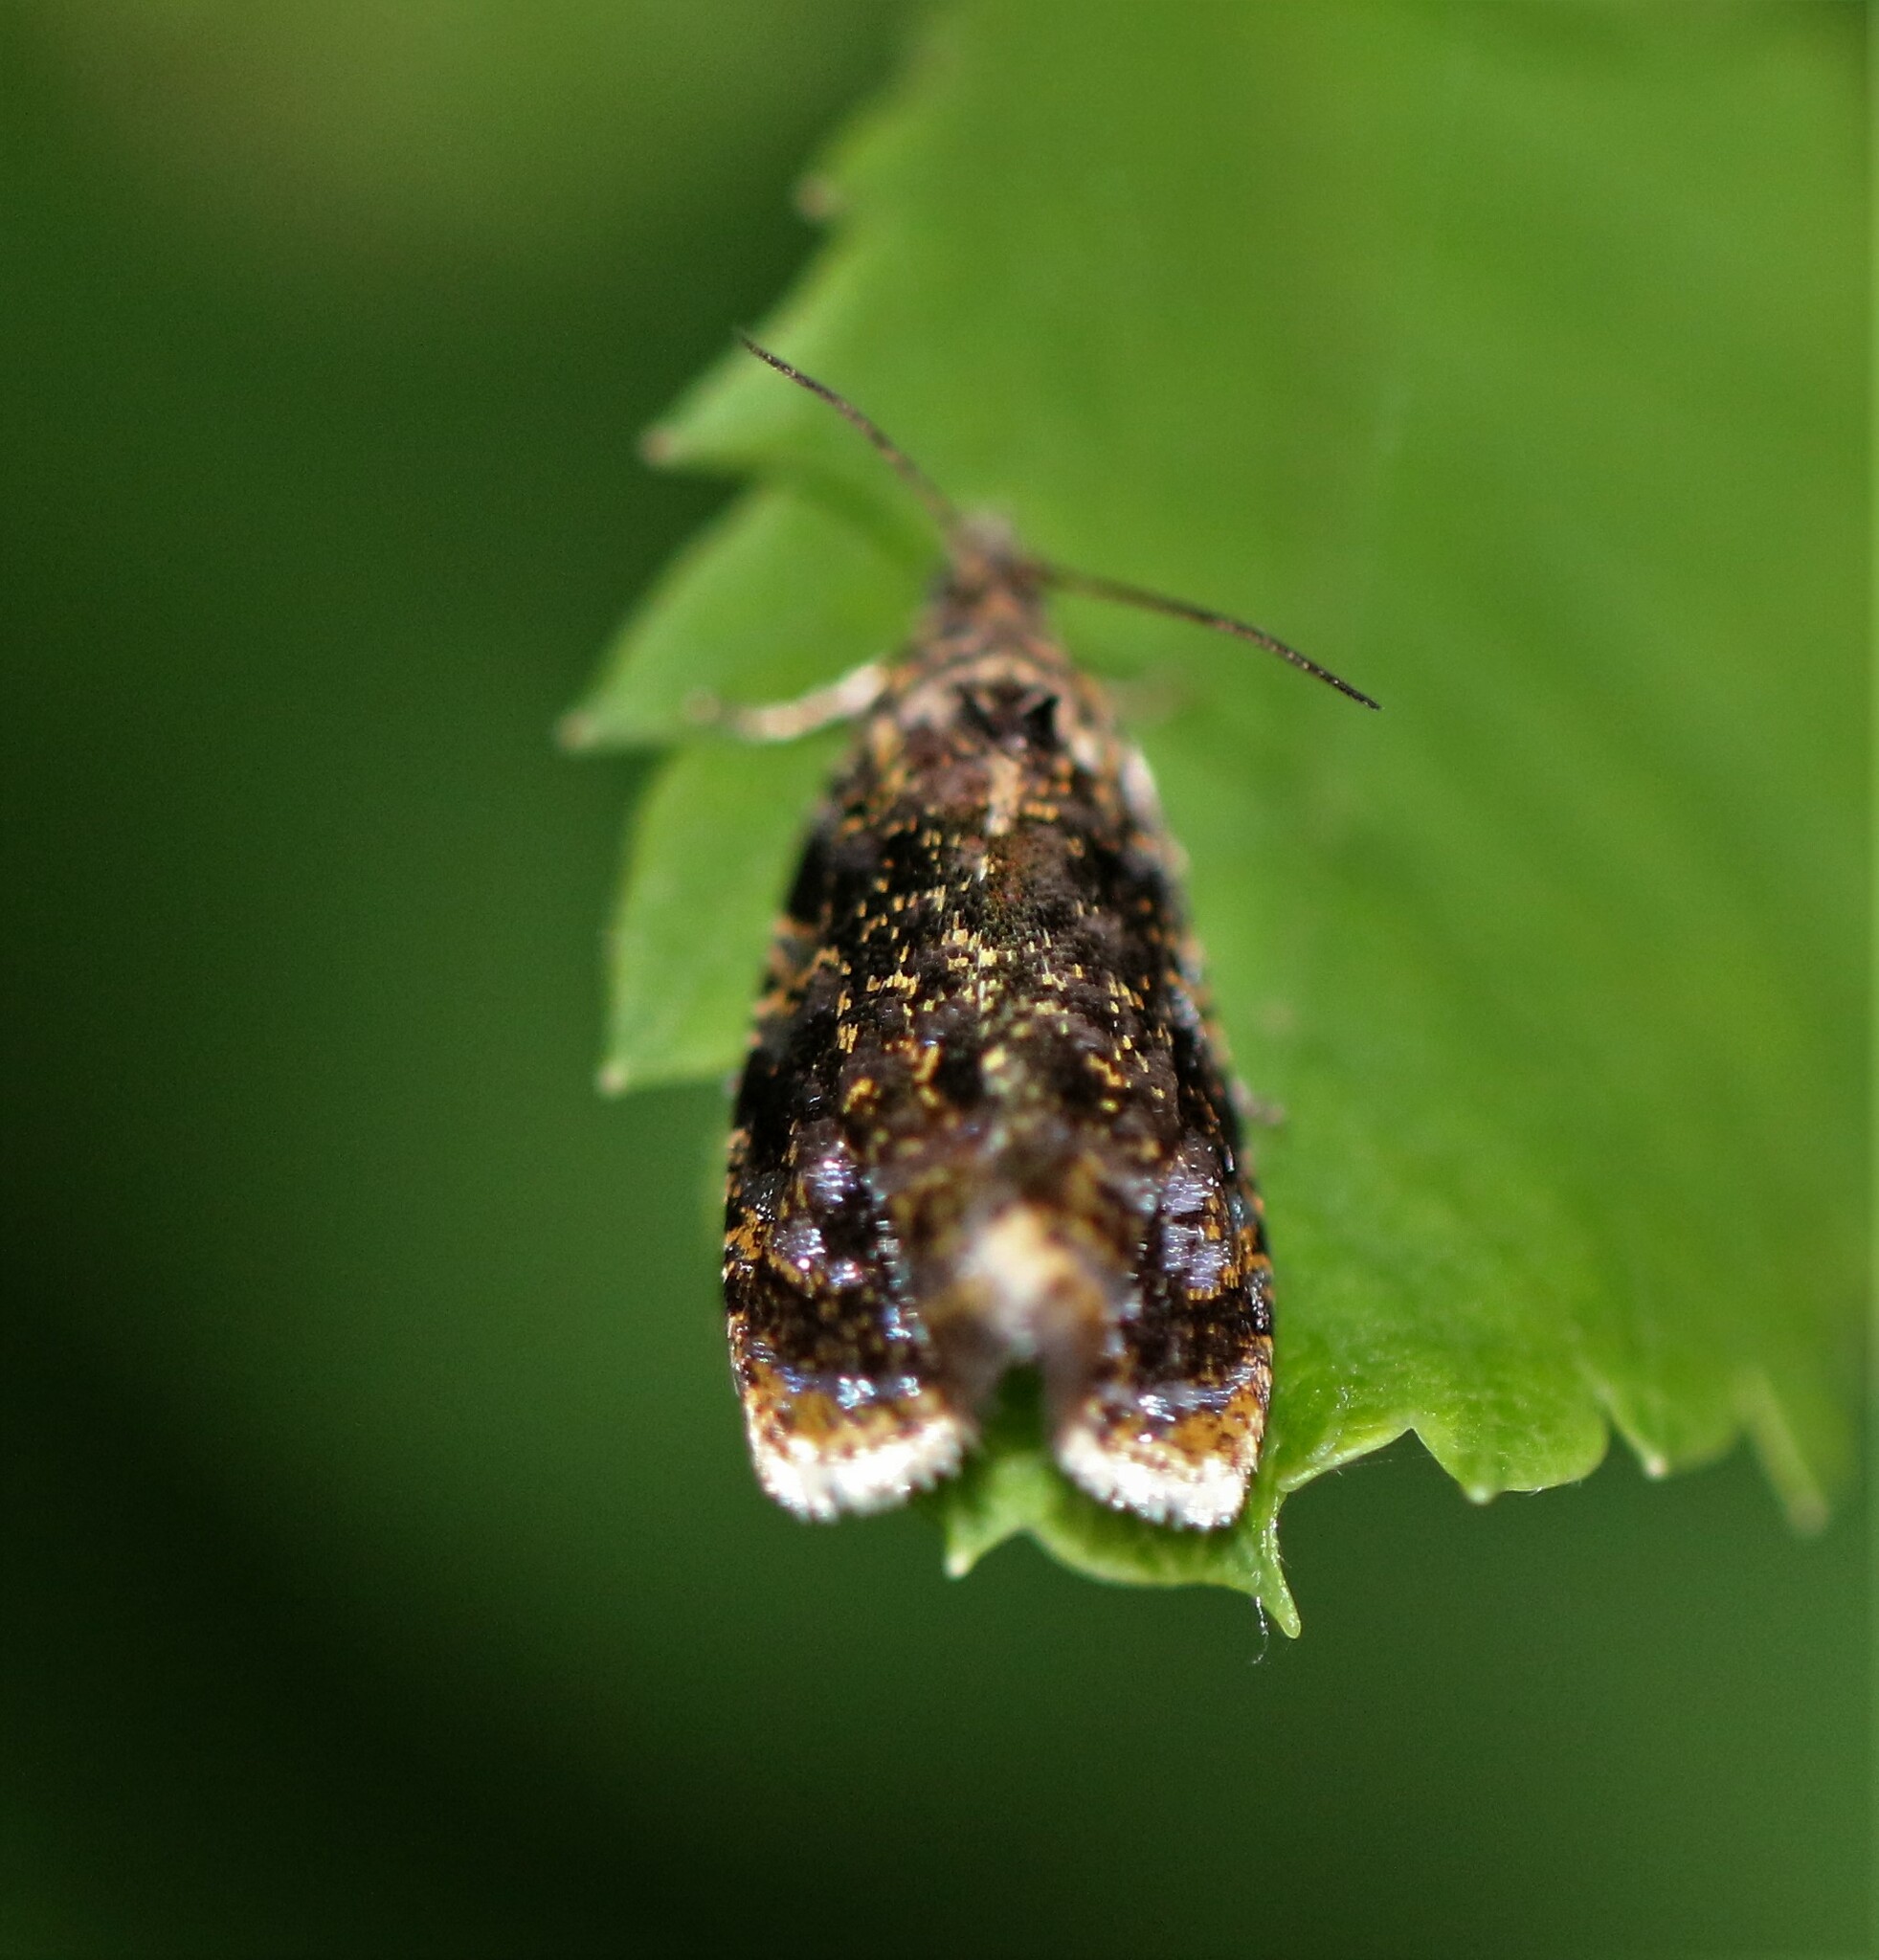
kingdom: Animalia
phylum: Arthropoda
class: Insecta
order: Lepidoptera
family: Tortricidae
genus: Olethreutes
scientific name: Olethreutes astrologana
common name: Astronomer moth
